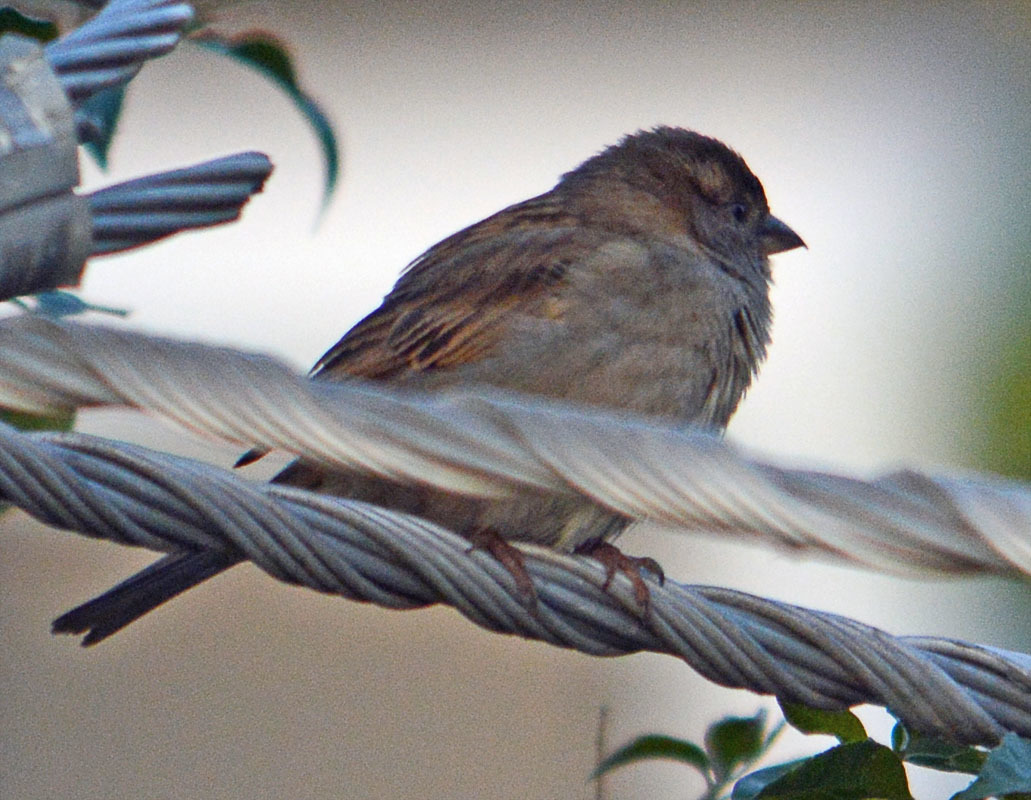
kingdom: Animalia
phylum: Chordata
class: Aves
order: Passeriformes
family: Passeridae
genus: Passer
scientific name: Passer domesticus
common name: House sparrow
